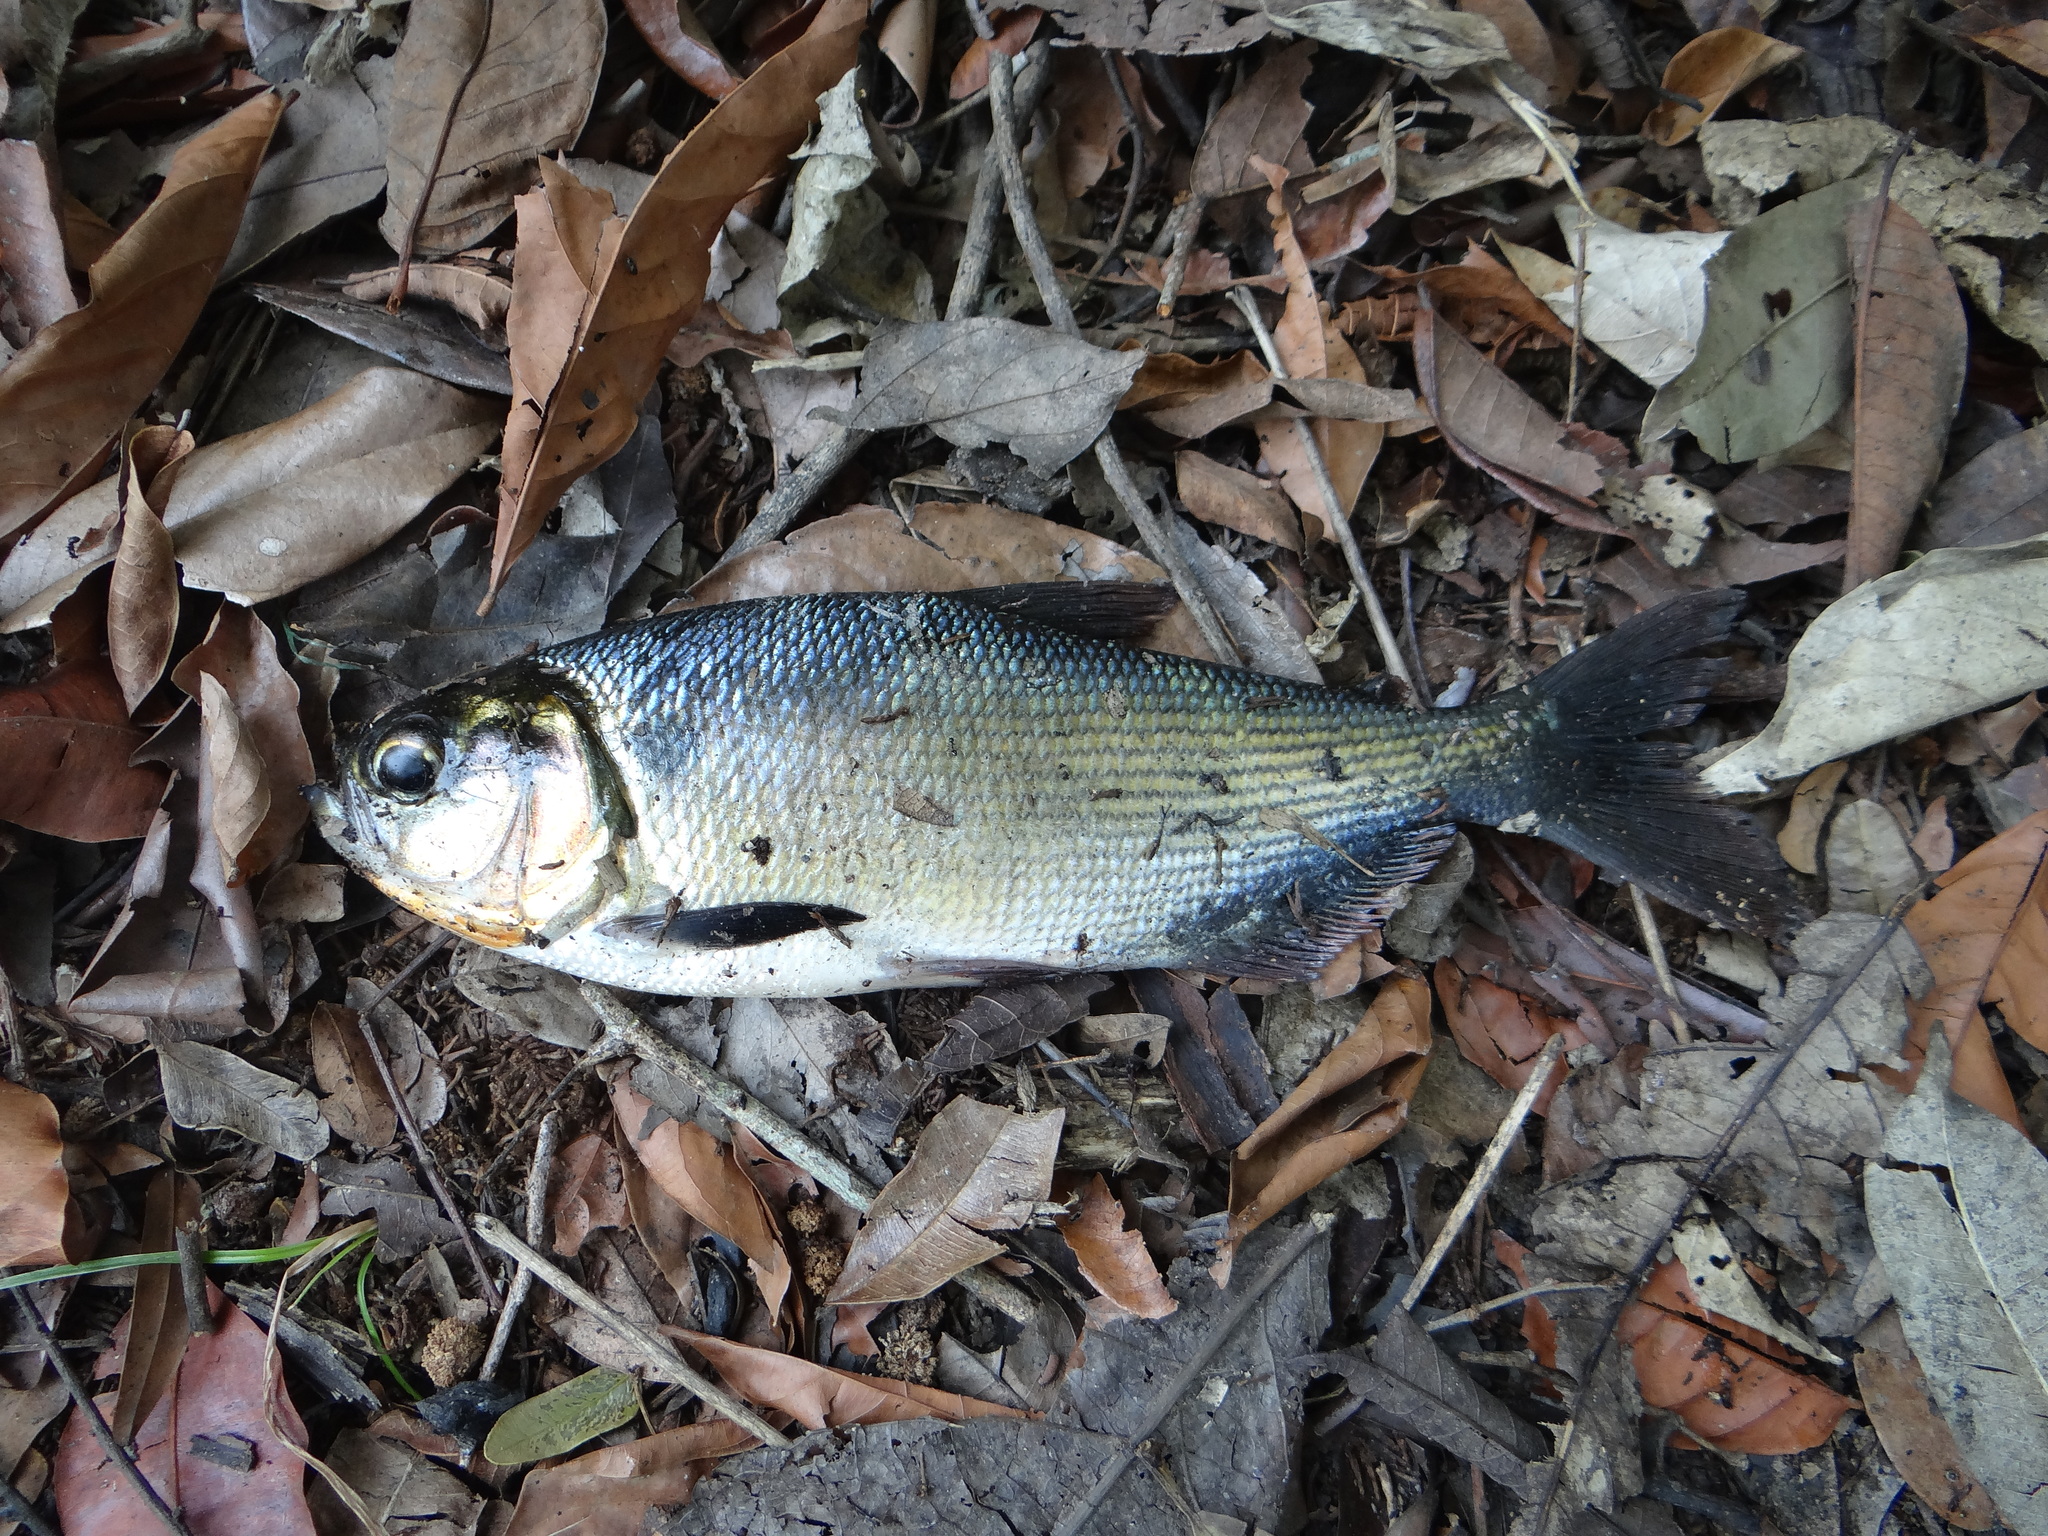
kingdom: Animalia
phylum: Chordata
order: Characiformes
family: Bryconidae
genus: Brycon
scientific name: Brycon amazonicus
